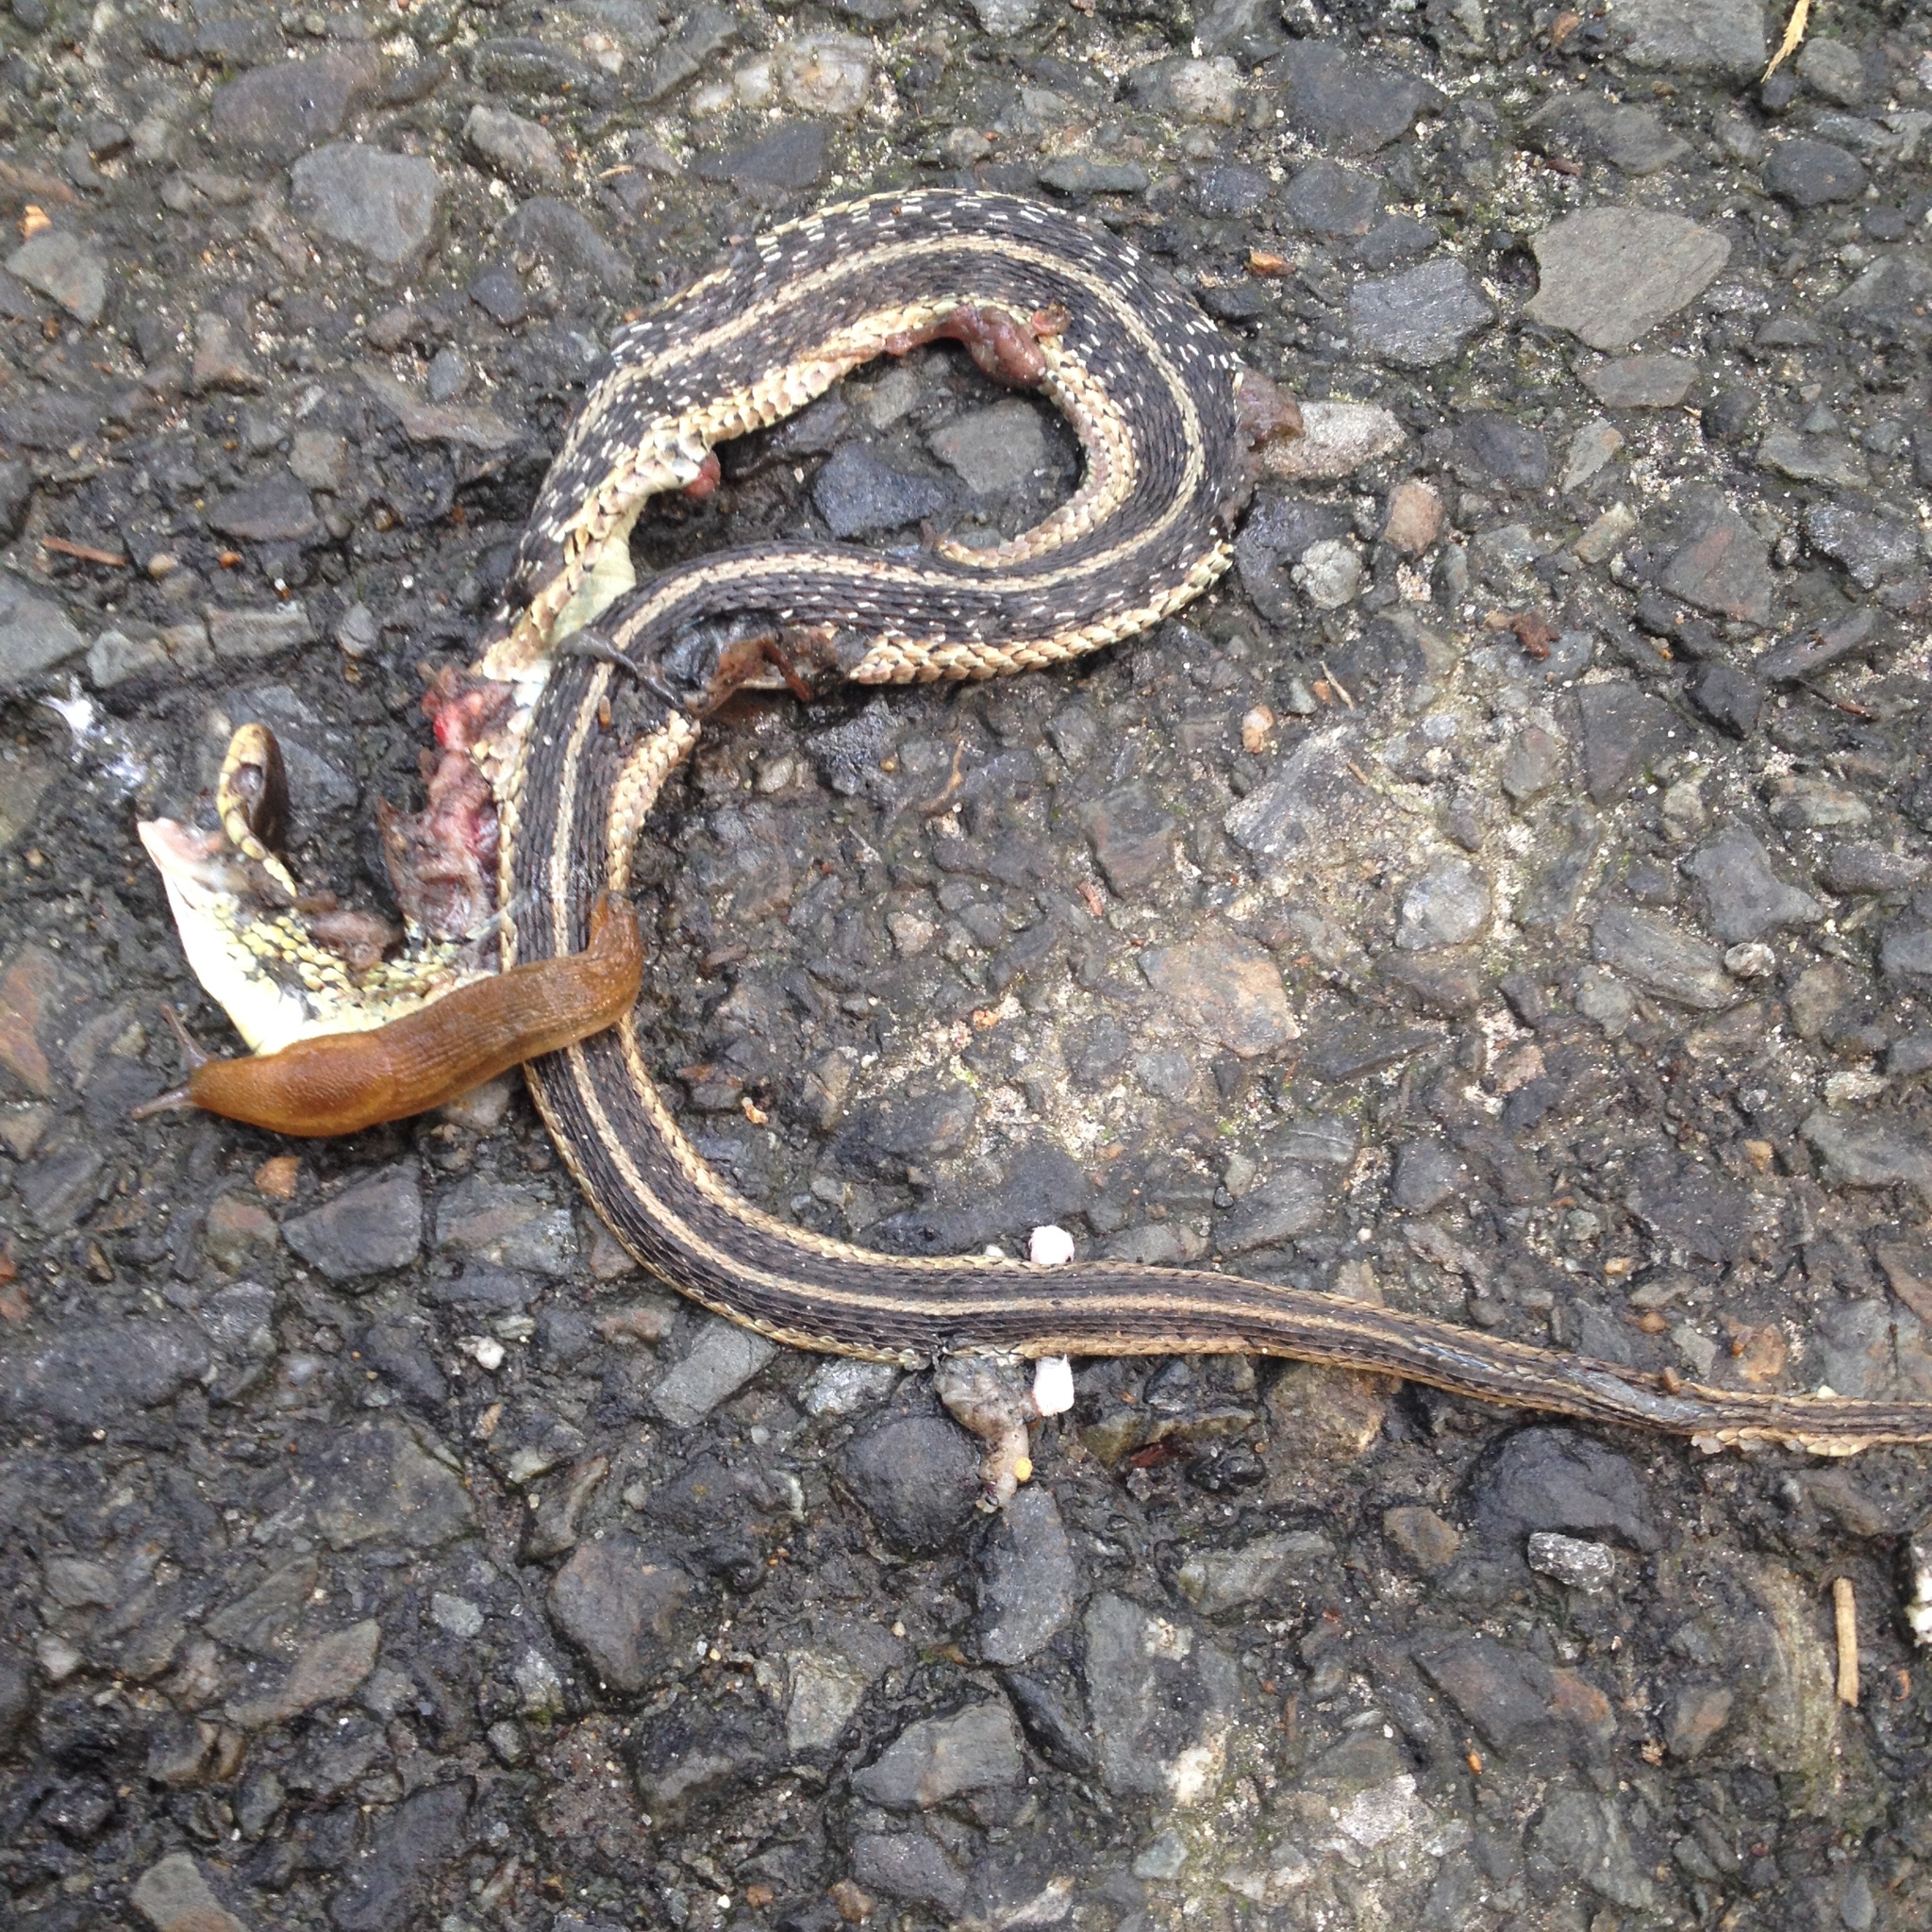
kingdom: Animalia
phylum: Chordata
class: Squamata
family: Colubridae
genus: Thamnophis
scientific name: Thamnophis sirtalis
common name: Common garter snake
